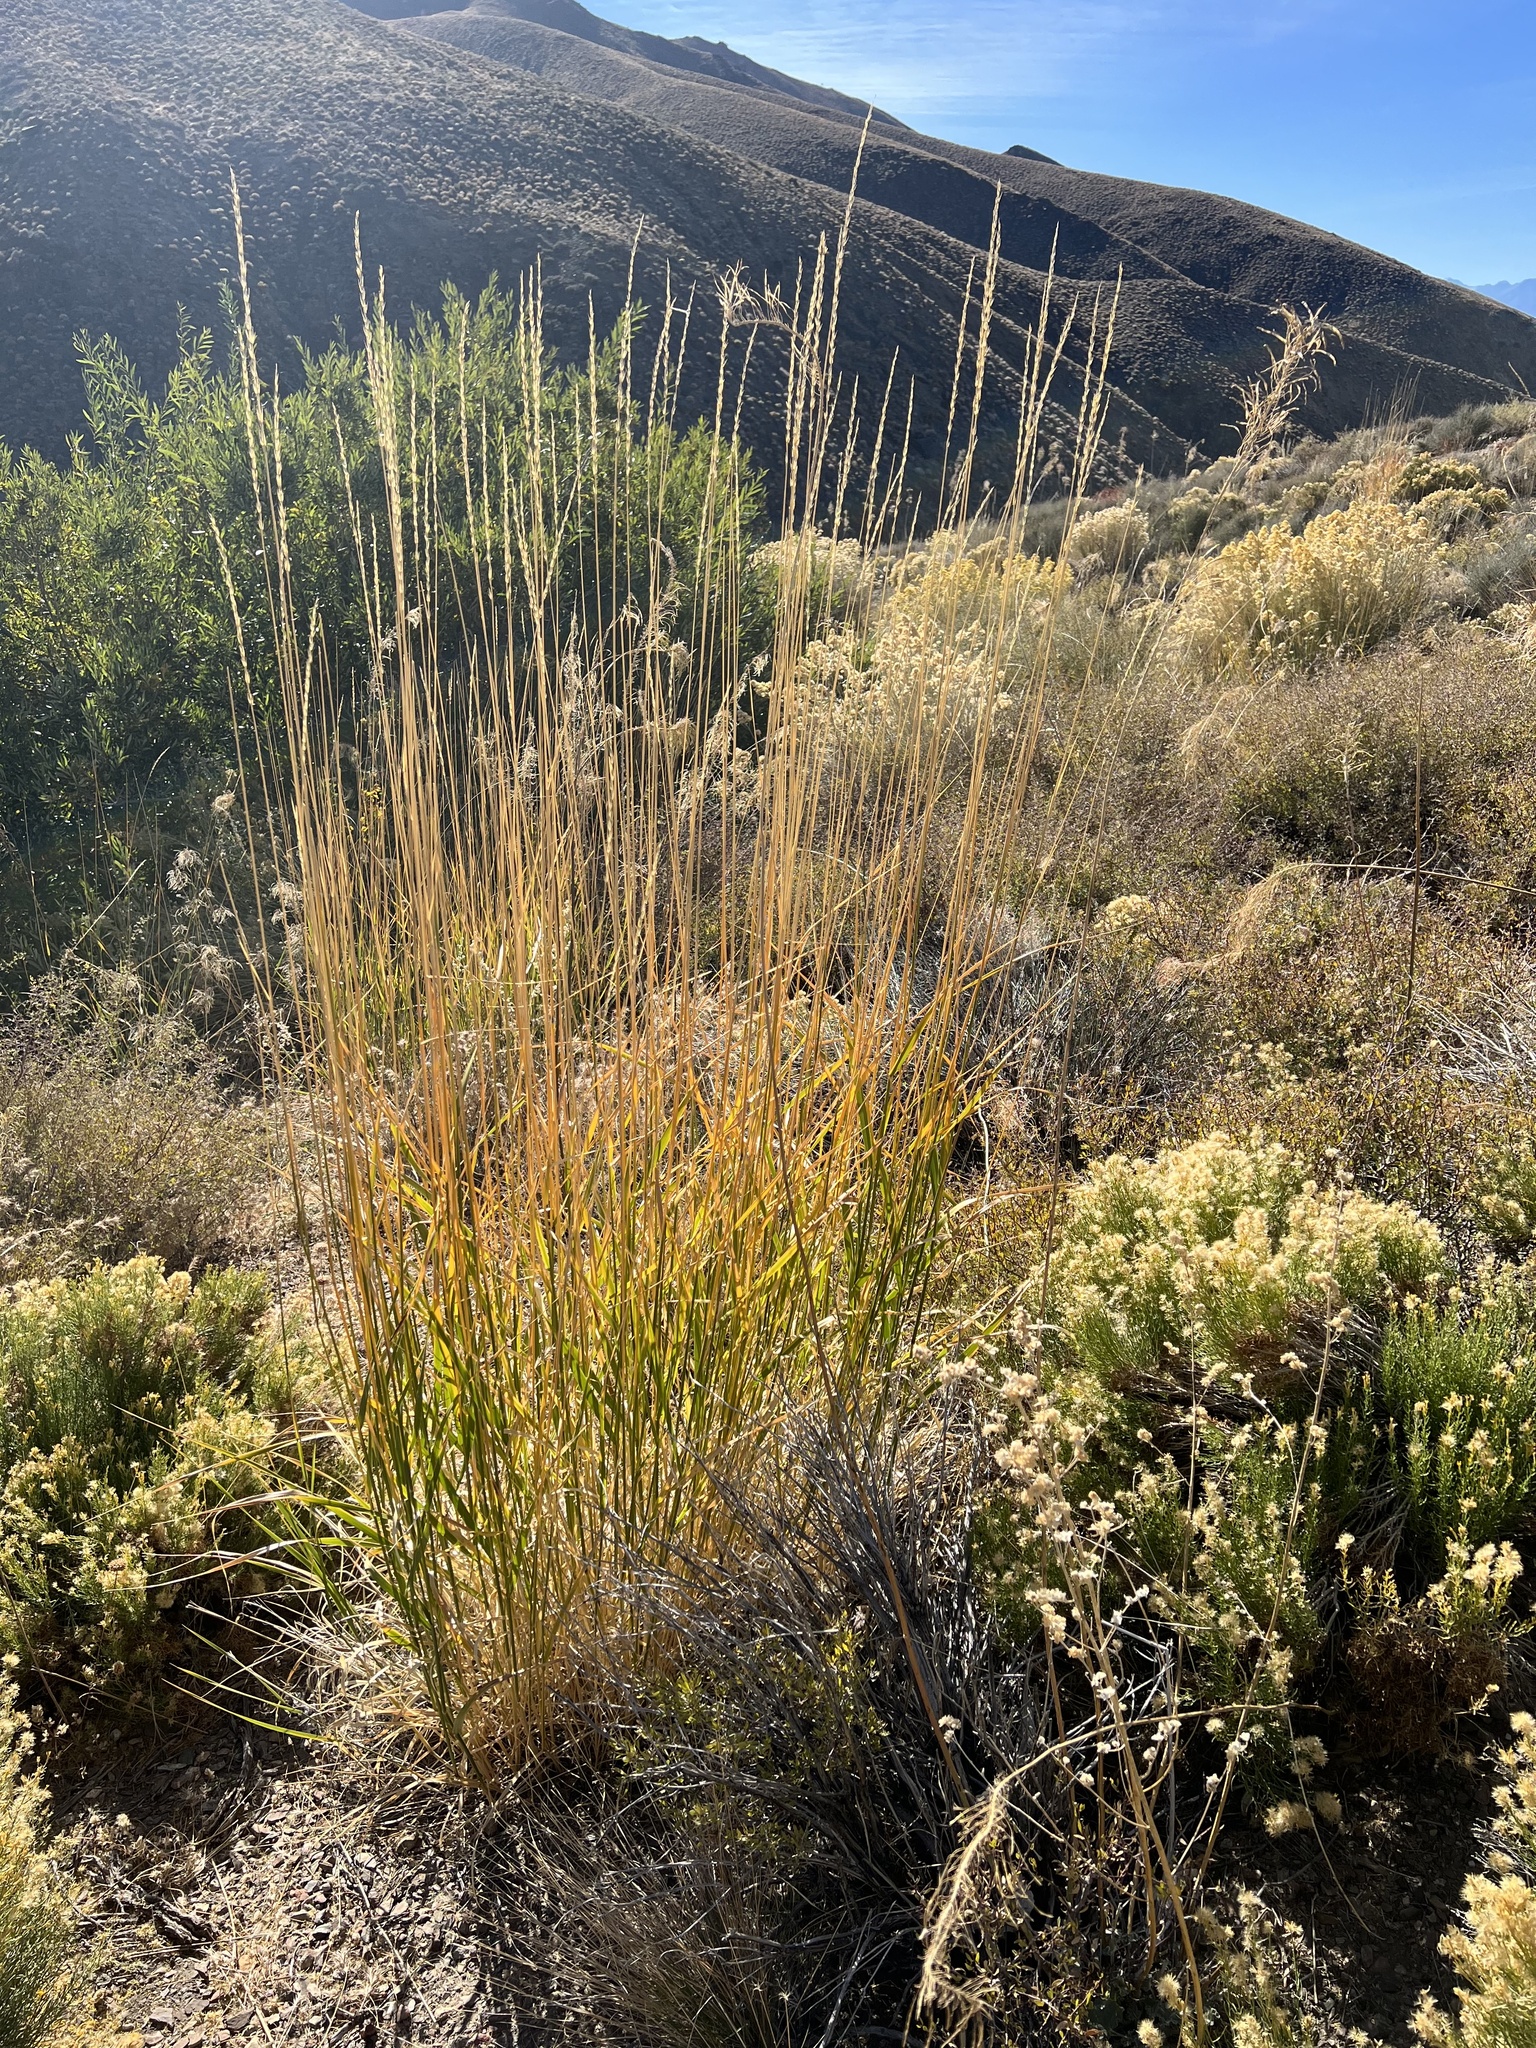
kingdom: Plantae
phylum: Tracheophyta
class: Liliopsida
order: Poales
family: Poaceae
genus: Leymus
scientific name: Leymus cinereus
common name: Basin wild rye
